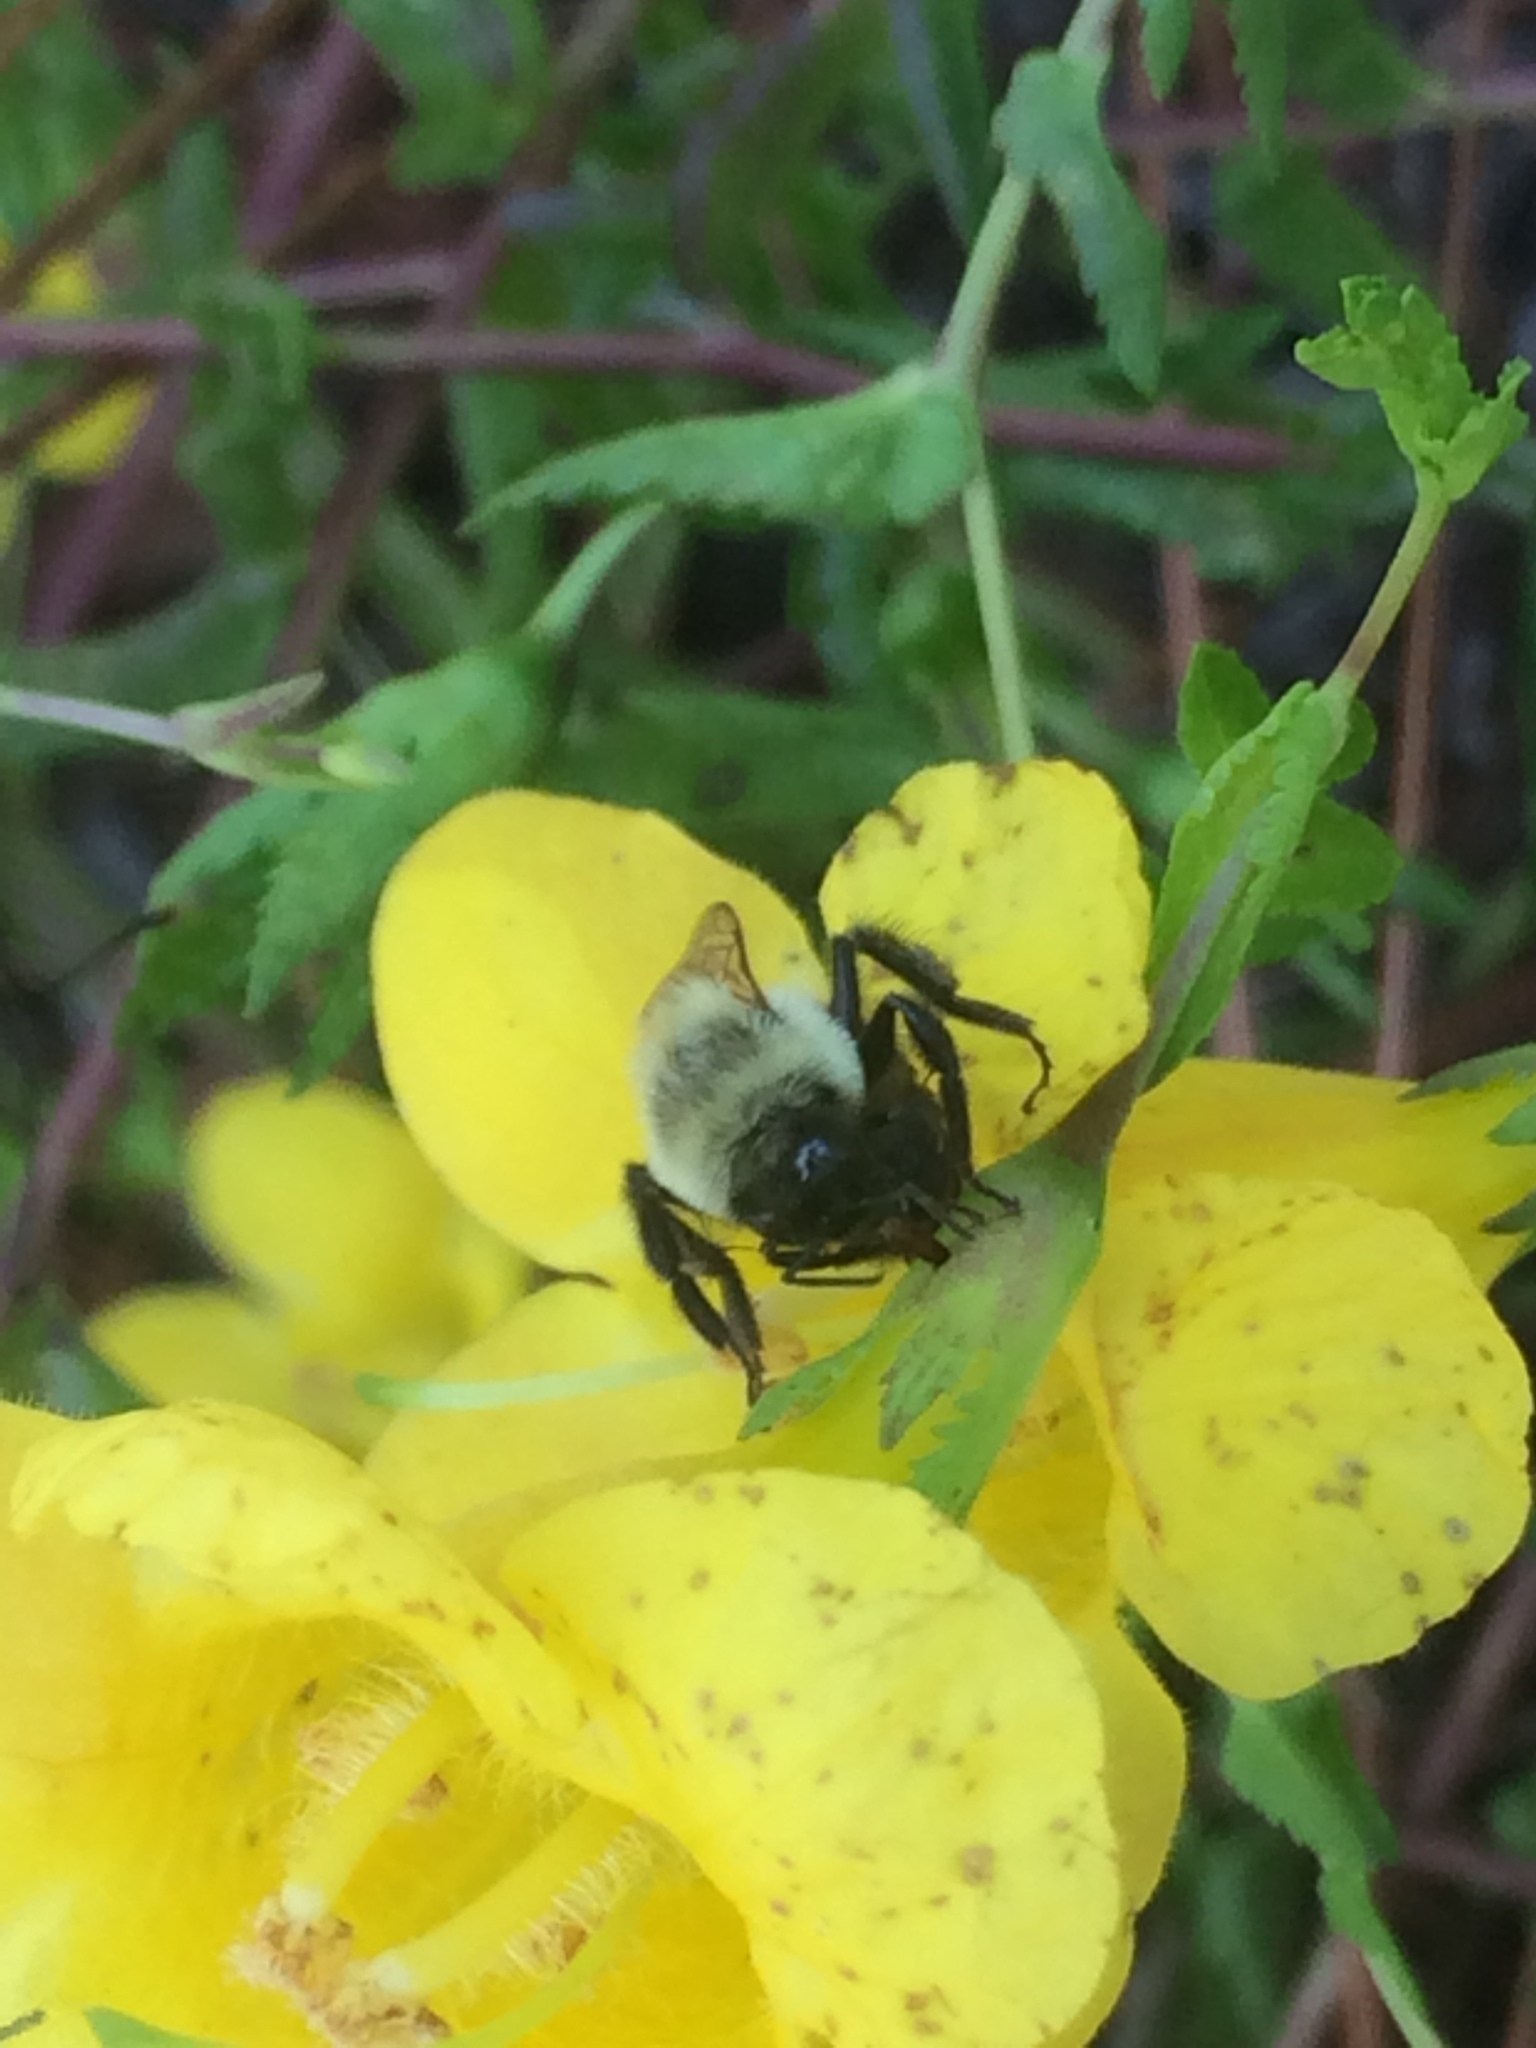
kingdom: Animalia
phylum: Arthropoda
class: Insecta
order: Hymenoptera
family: Apidae
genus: Bombus
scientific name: Bombus impatiens
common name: Common eastern bumble bee
